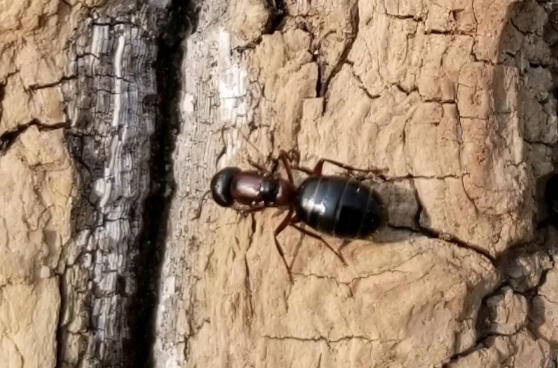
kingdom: Animalia
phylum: Arthropoda
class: Insecta
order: Hymenoptera
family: Formicidae
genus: Camponotus
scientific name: Camponotus novaeboracensis
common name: New york carpenter ant
